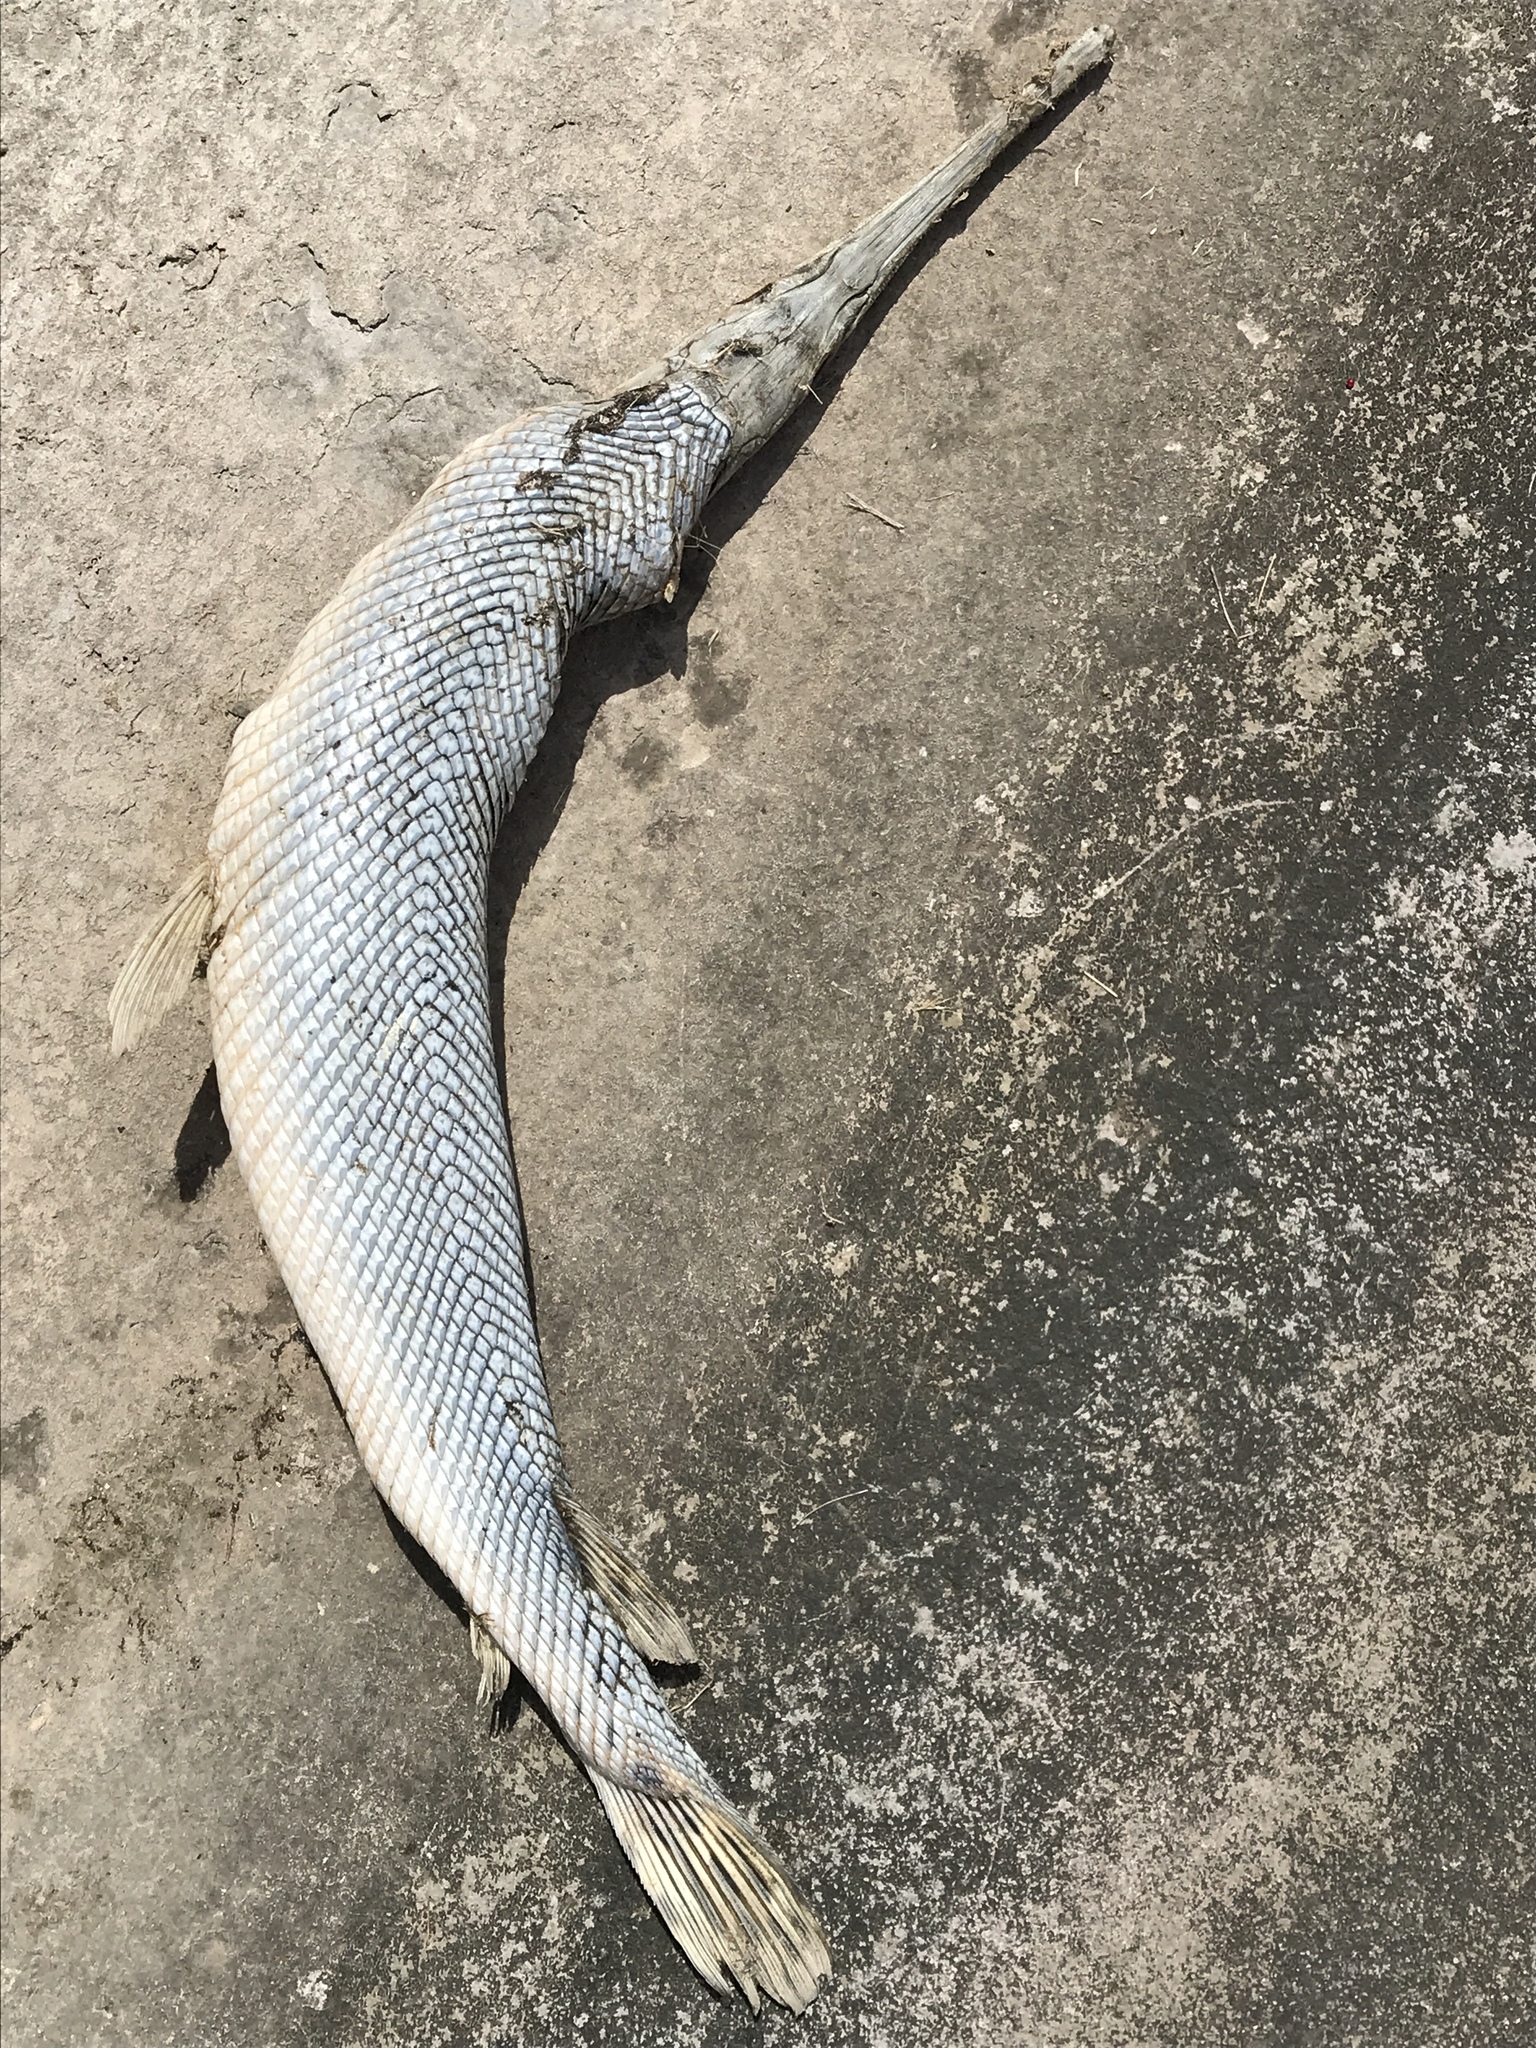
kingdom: Animalia
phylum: Chordata
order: Lepisosteiformes
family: Lepisosteidae
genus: Lepisosteus
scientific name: Lepisosteus osseus
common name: Longnose gar
